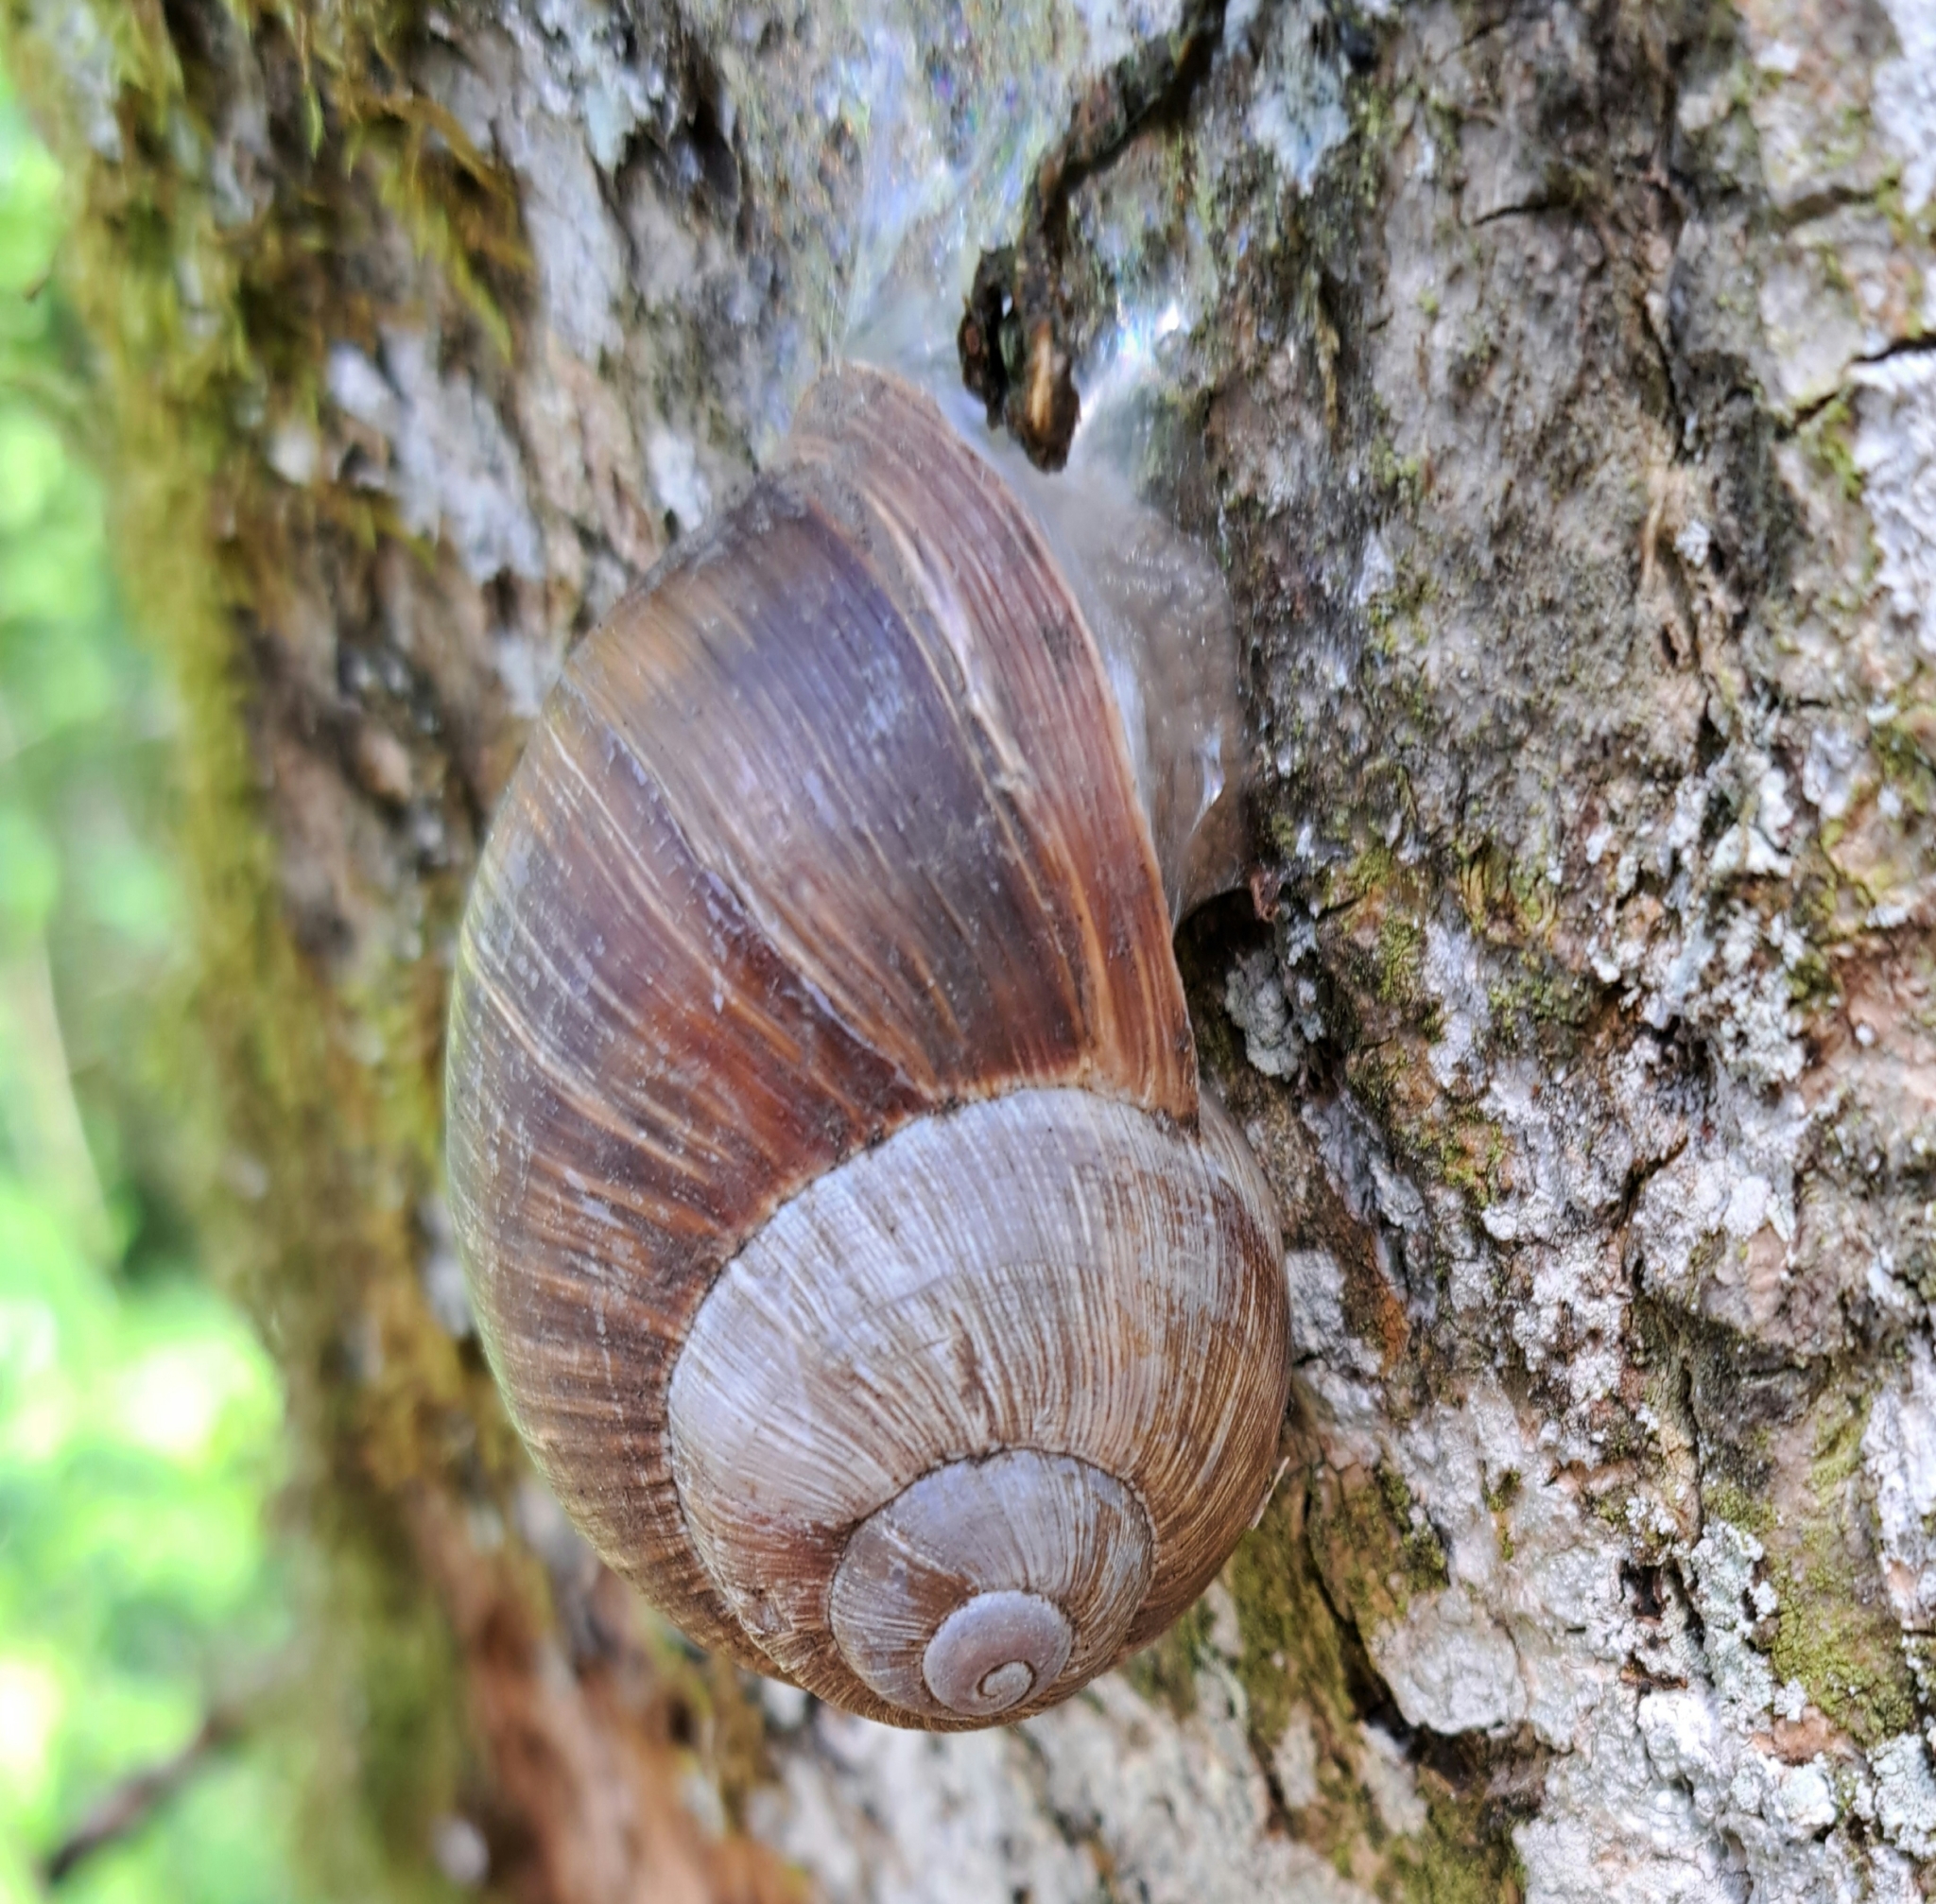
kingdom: Animalia
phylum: Mollusca
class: Gastropoda
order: Stylommatophora
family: Helicidae
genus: Helix
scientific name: Helix pomatia
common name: Roman snail
